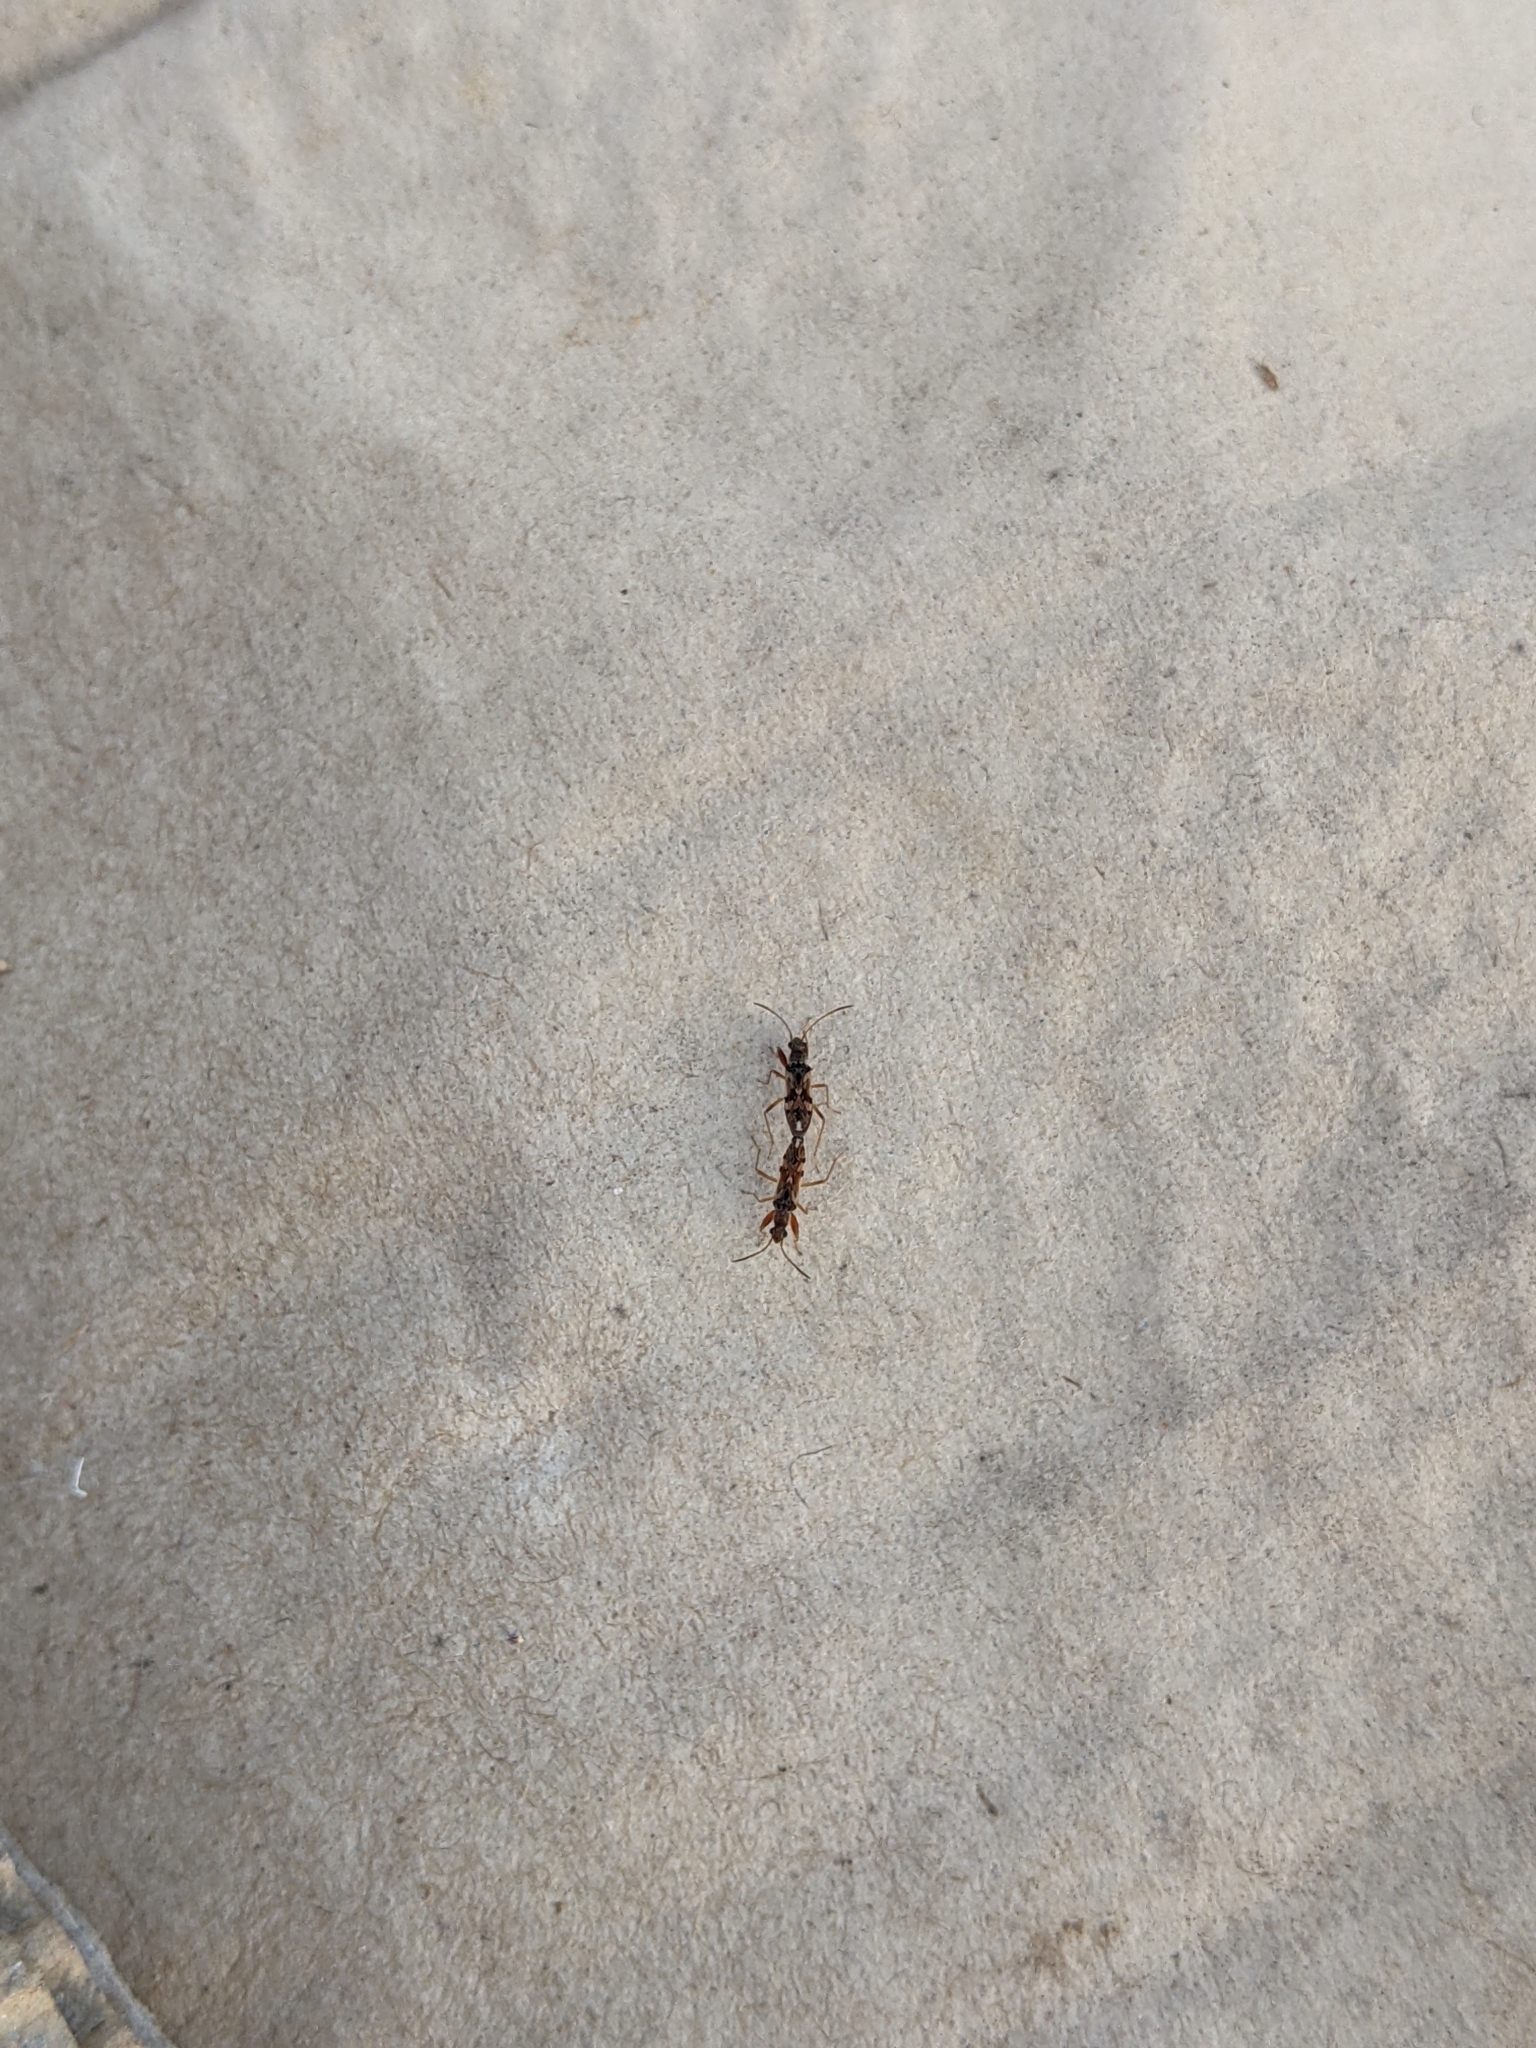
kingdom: Animalia
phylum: Arthropoda
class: Insecta
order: Hemiptera
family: Rhyparochromidae
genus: Neopamera
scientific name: Neopamera bilobata
